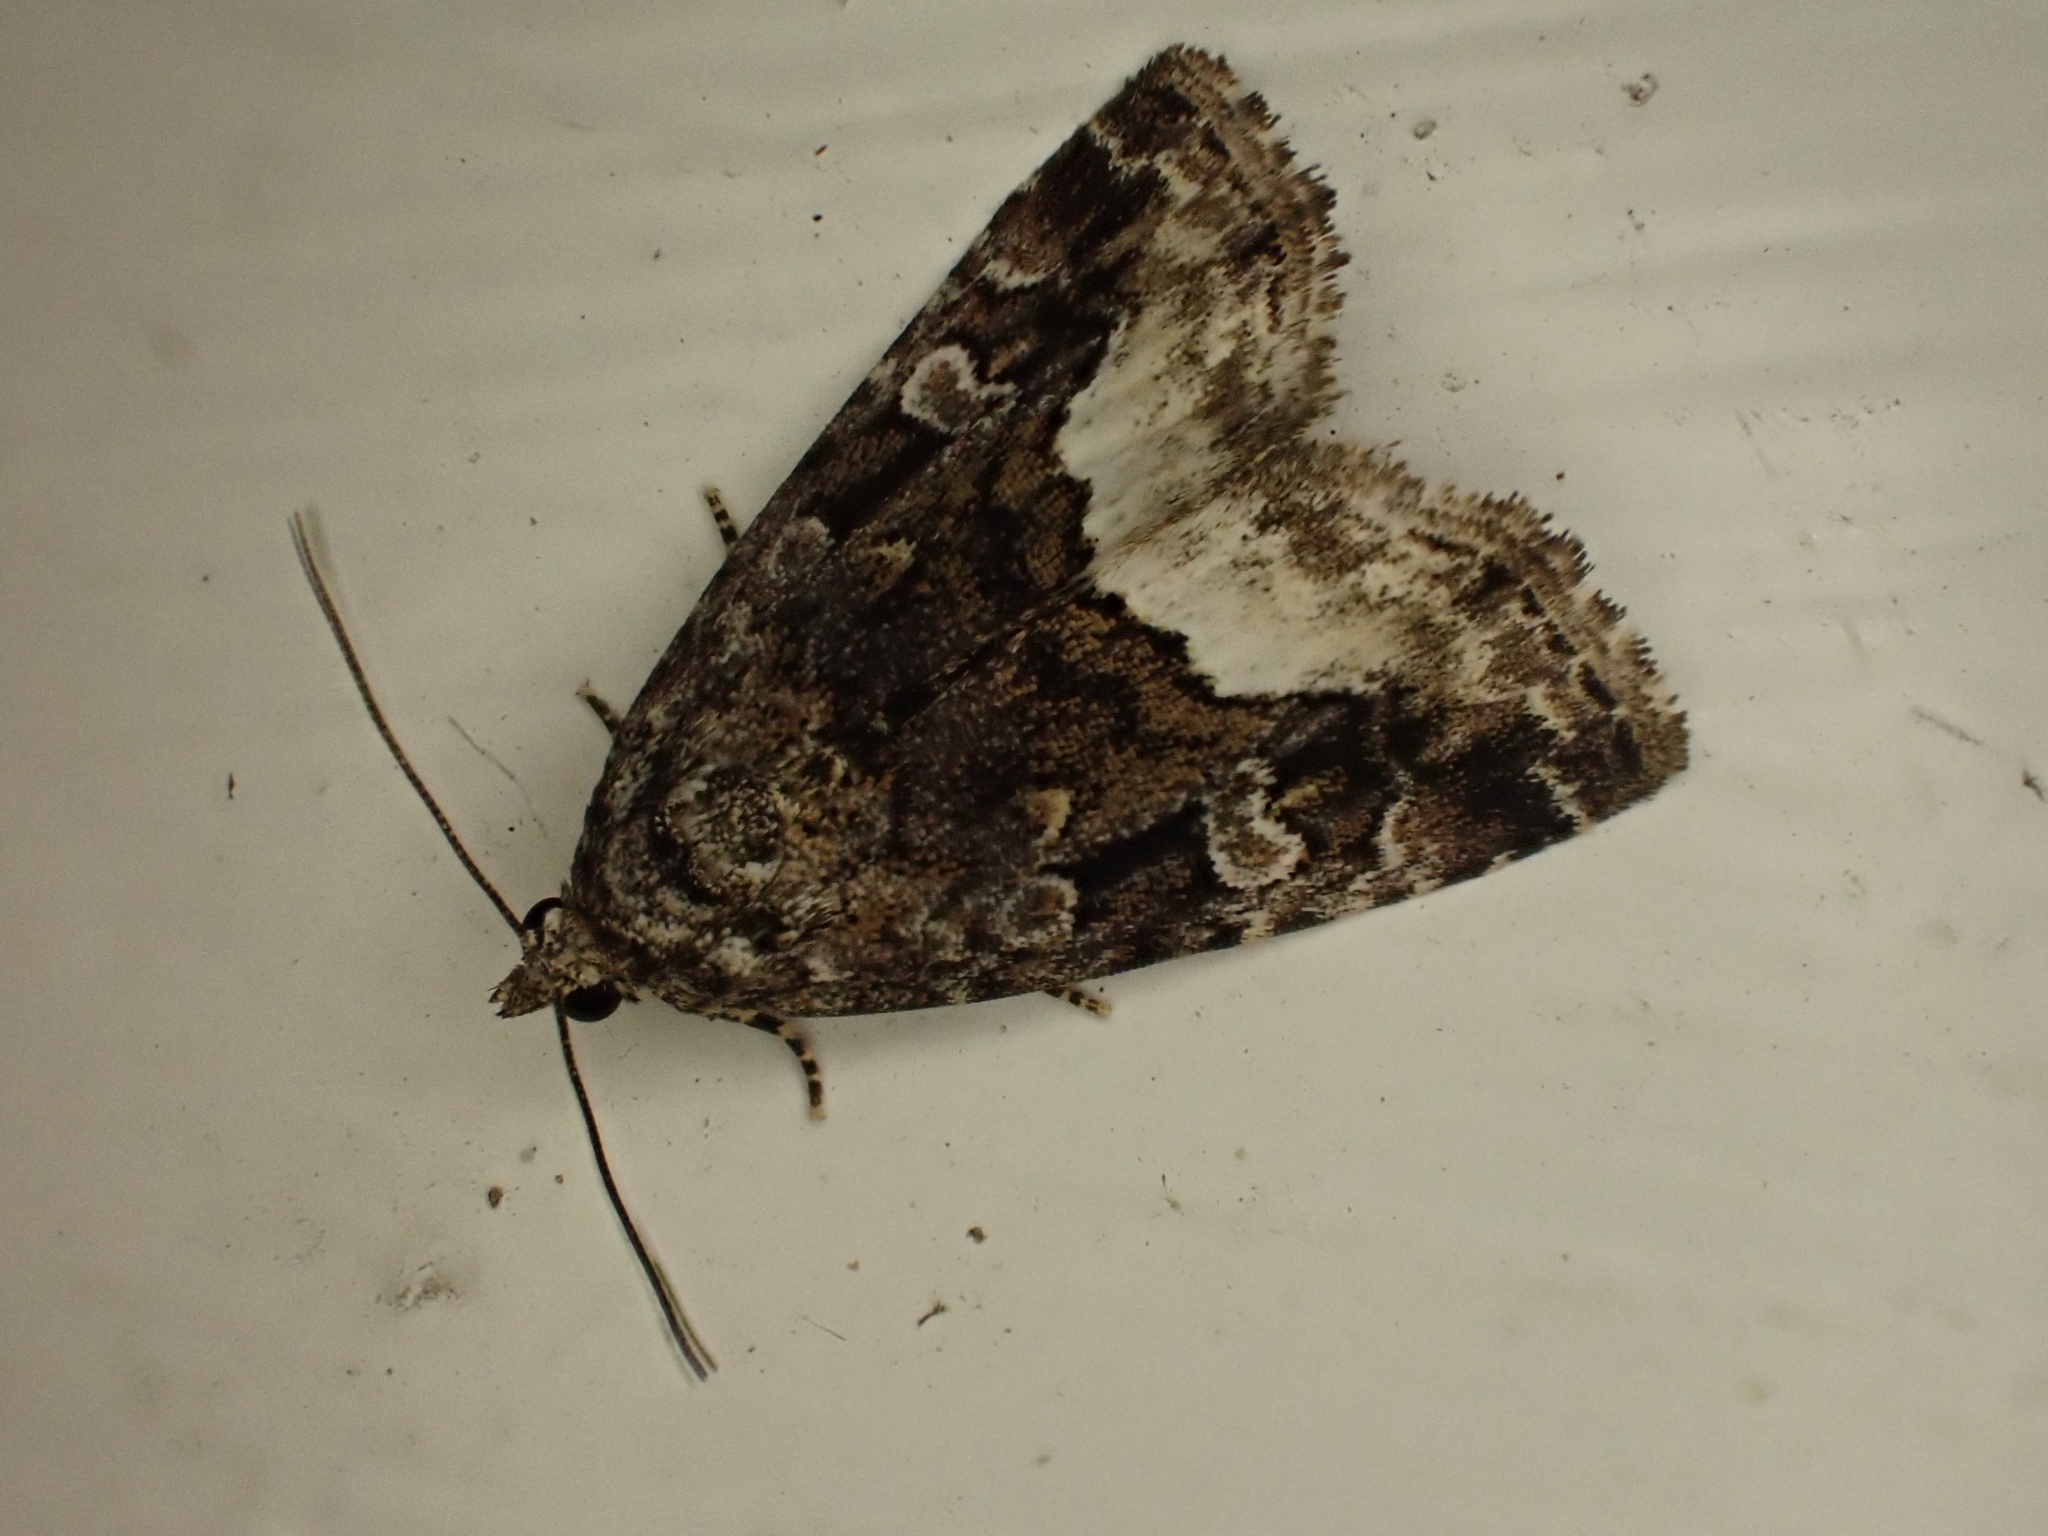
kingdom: Animalia
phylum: Arthropoda
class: Insecta
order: Lepidoptera
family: Noctuidae
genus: Deltote
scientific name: Deltote pygarga
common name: Marbled white spot
